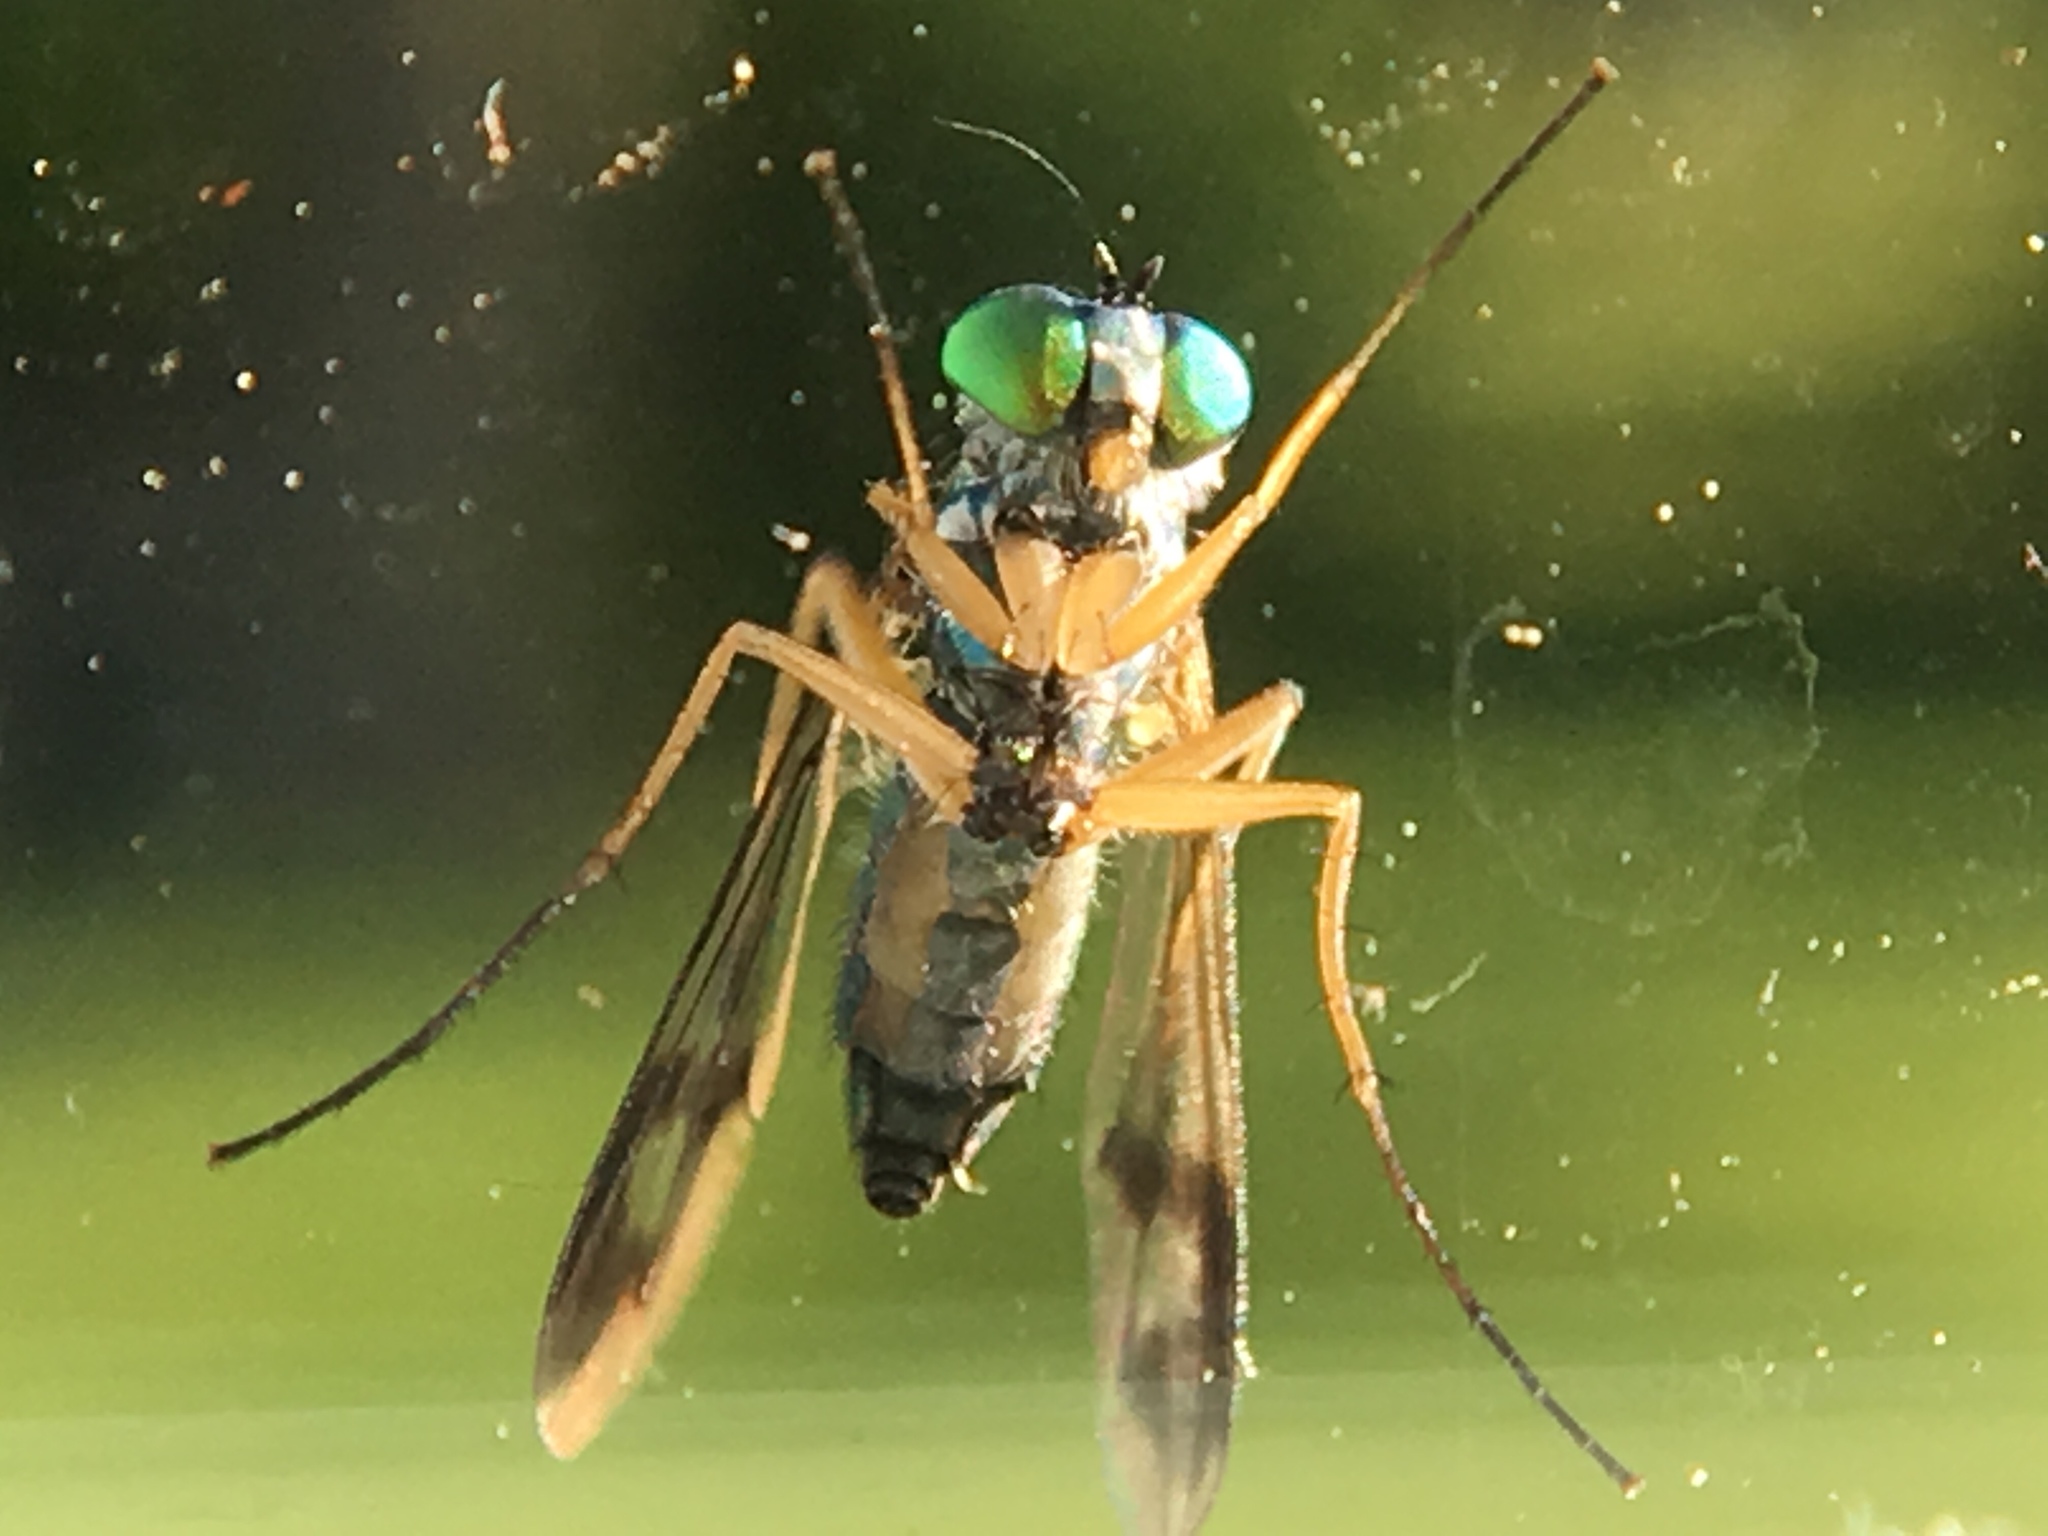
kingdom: Animalia
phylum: Arthropoda
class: Insecta
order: Diptera
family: Dolichopodidae
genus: Condylostylus
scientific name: Condylostylus
